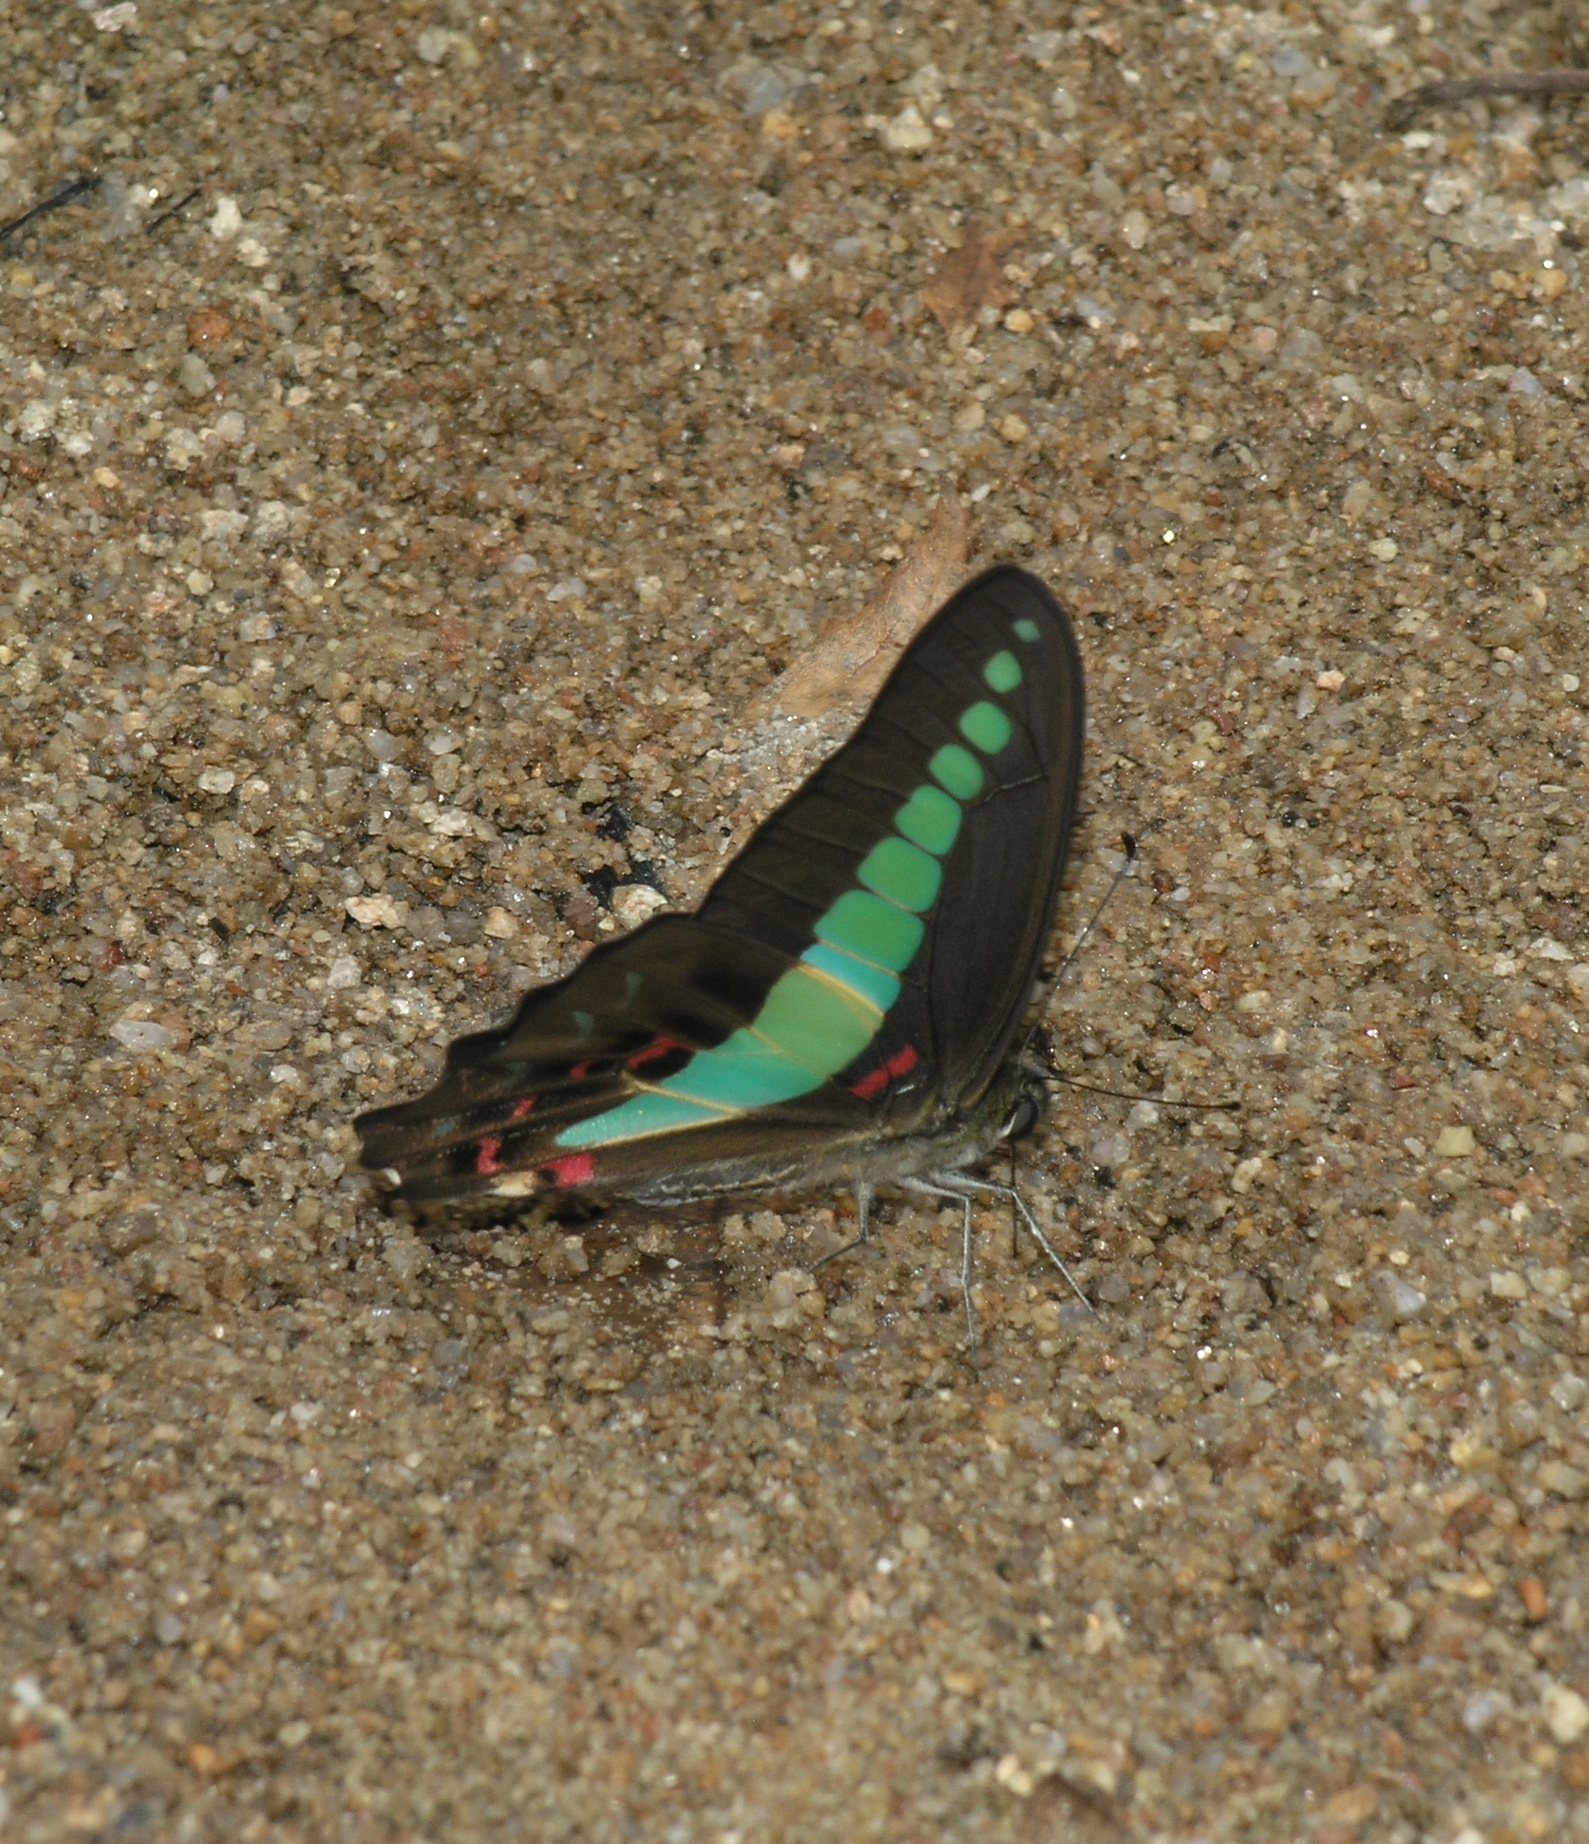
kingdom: Fungi
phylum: Ascomycota
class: Sordariomycetes
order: Microascales
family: Microascaceae
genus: Graphium
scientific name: Graphium sarpedon
